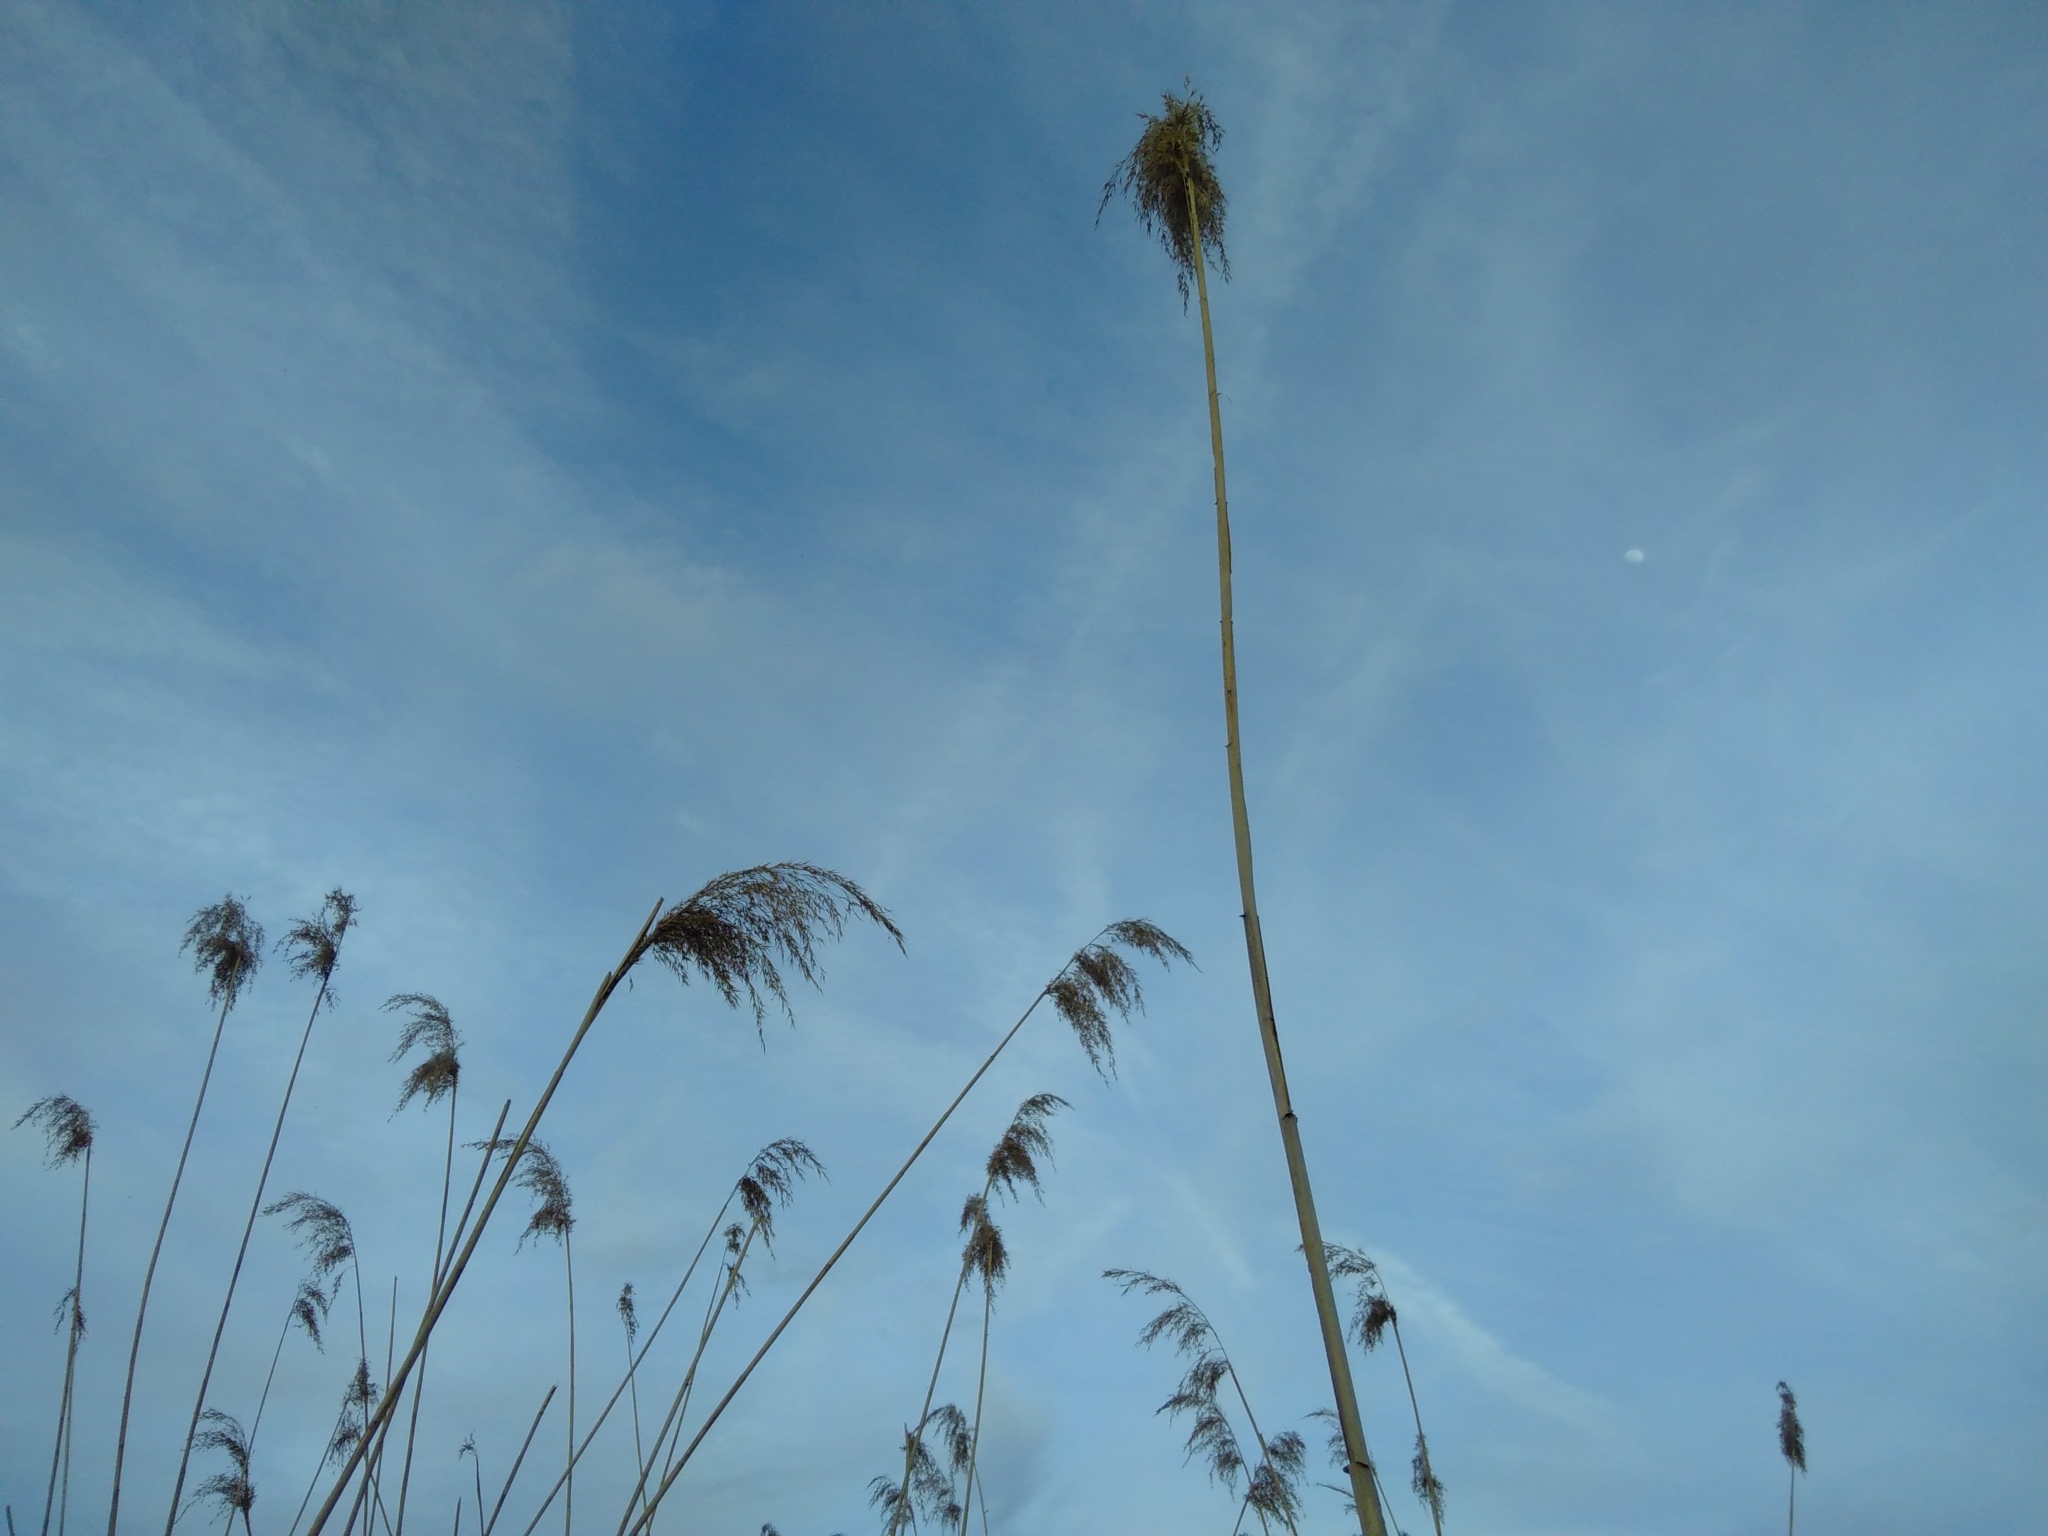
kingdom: Plantae
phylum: Tracheophyta
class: Liliopsida
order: Poales
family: Poaceae
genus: Phragmites
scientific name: Phragmites australis
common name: Common reed
